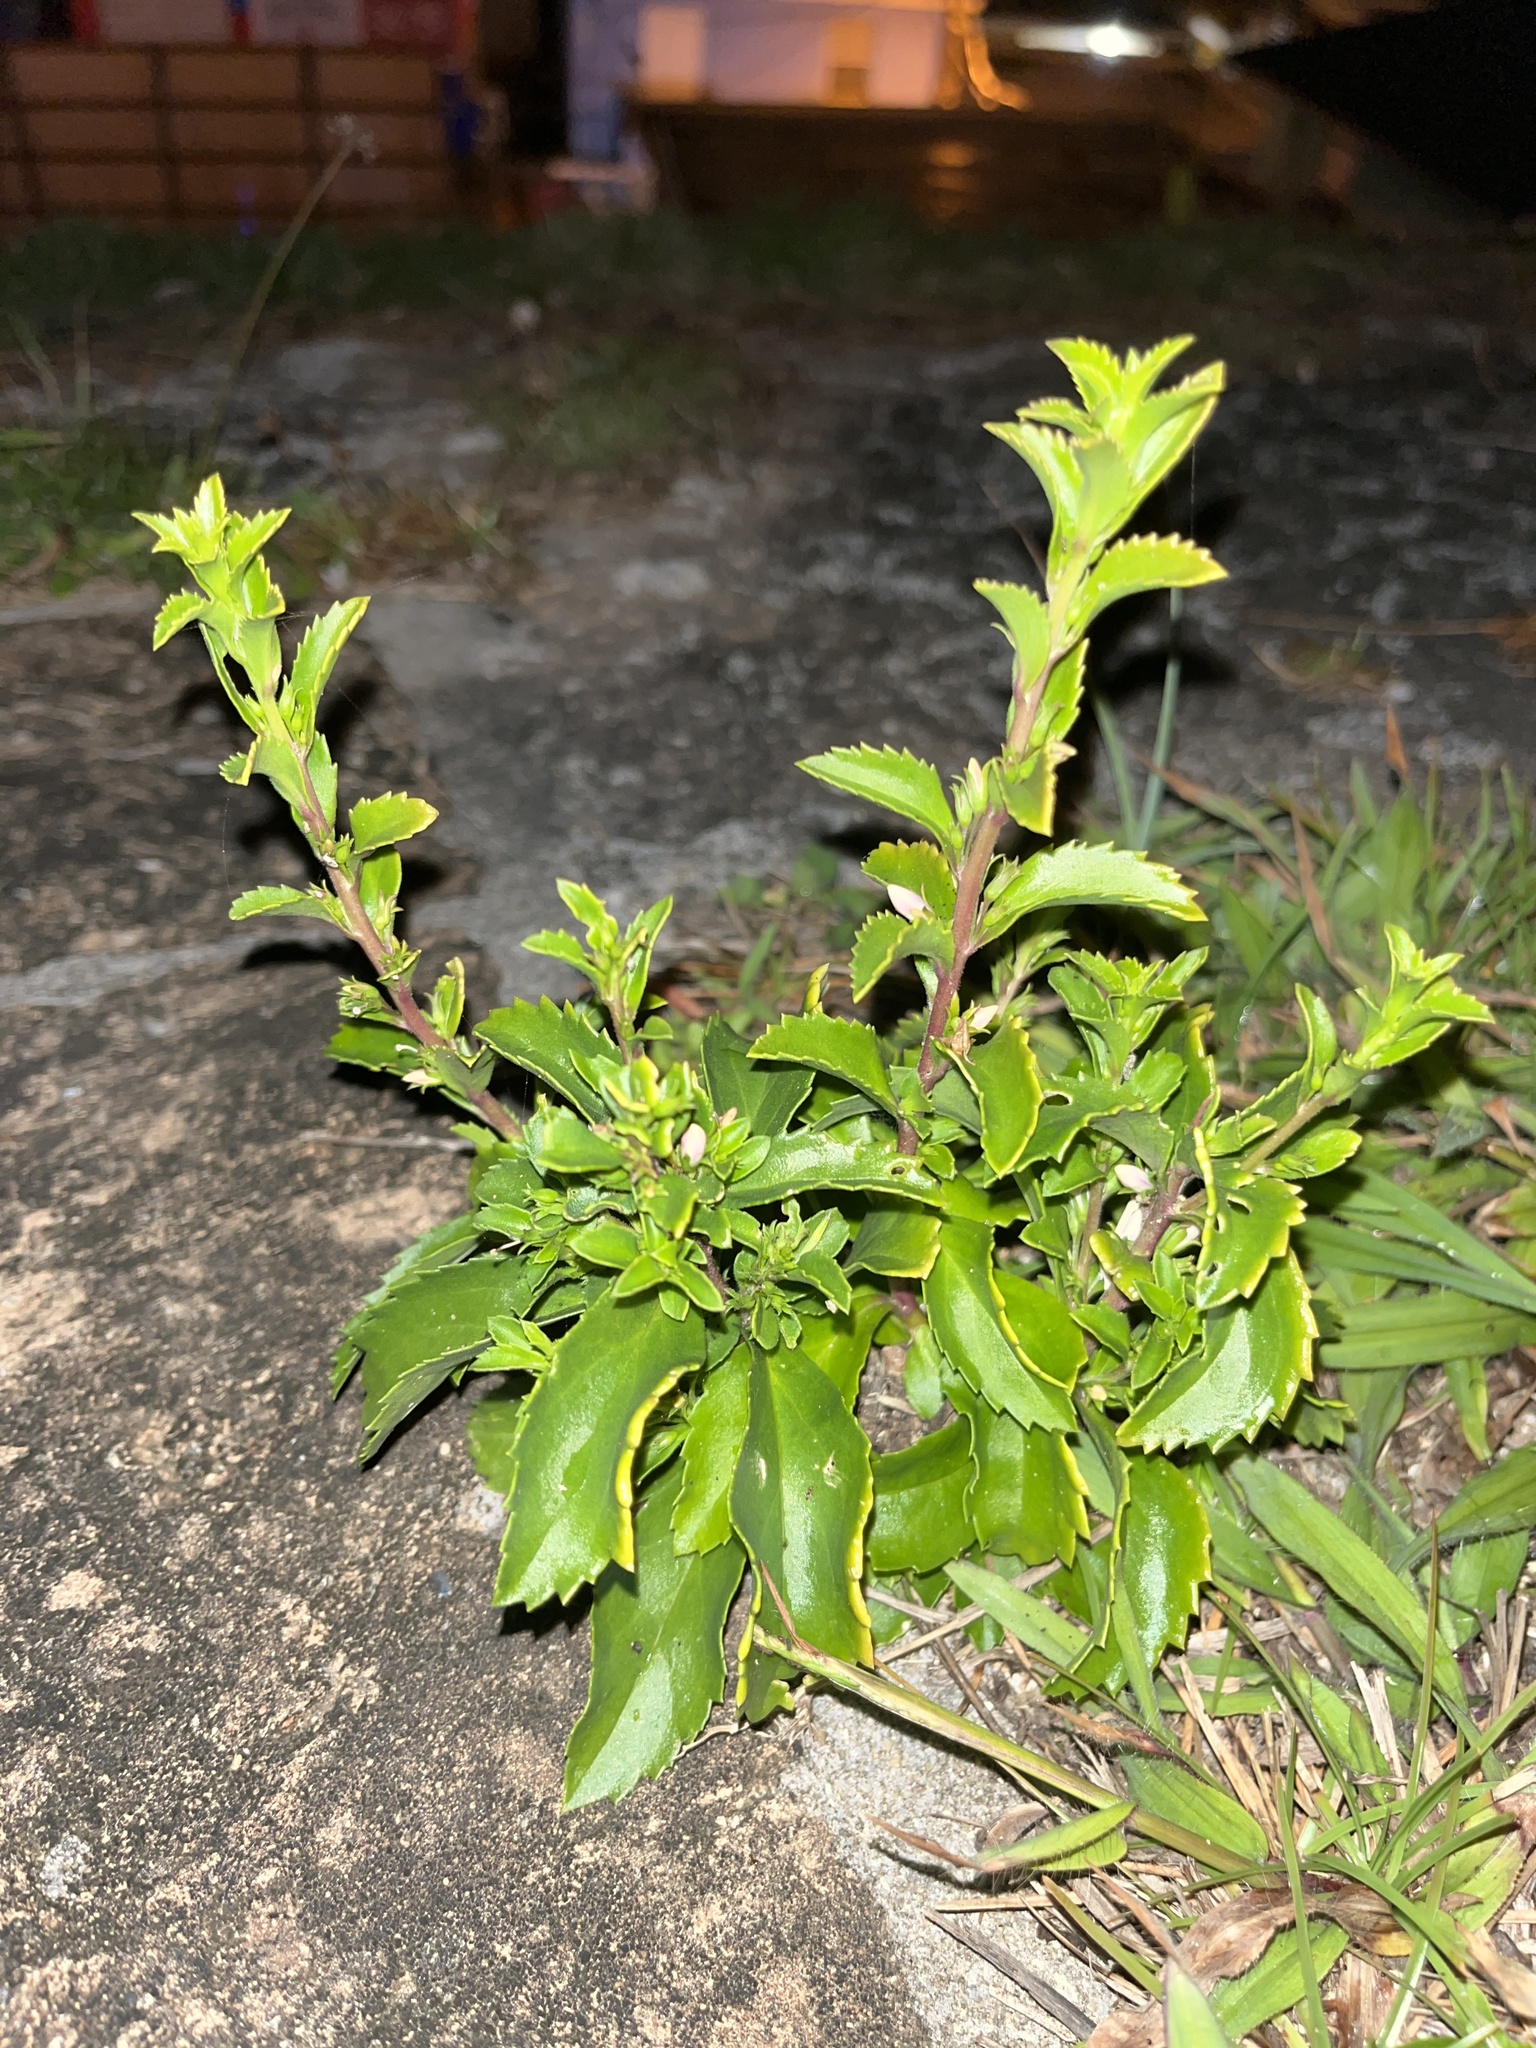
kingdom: Plantae
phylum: Tracheophyta
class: Magnoliopsida
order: Lamiales
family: Scrophulariaceae
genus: Capraria
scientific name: Capraria biflora
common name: Goatweed
